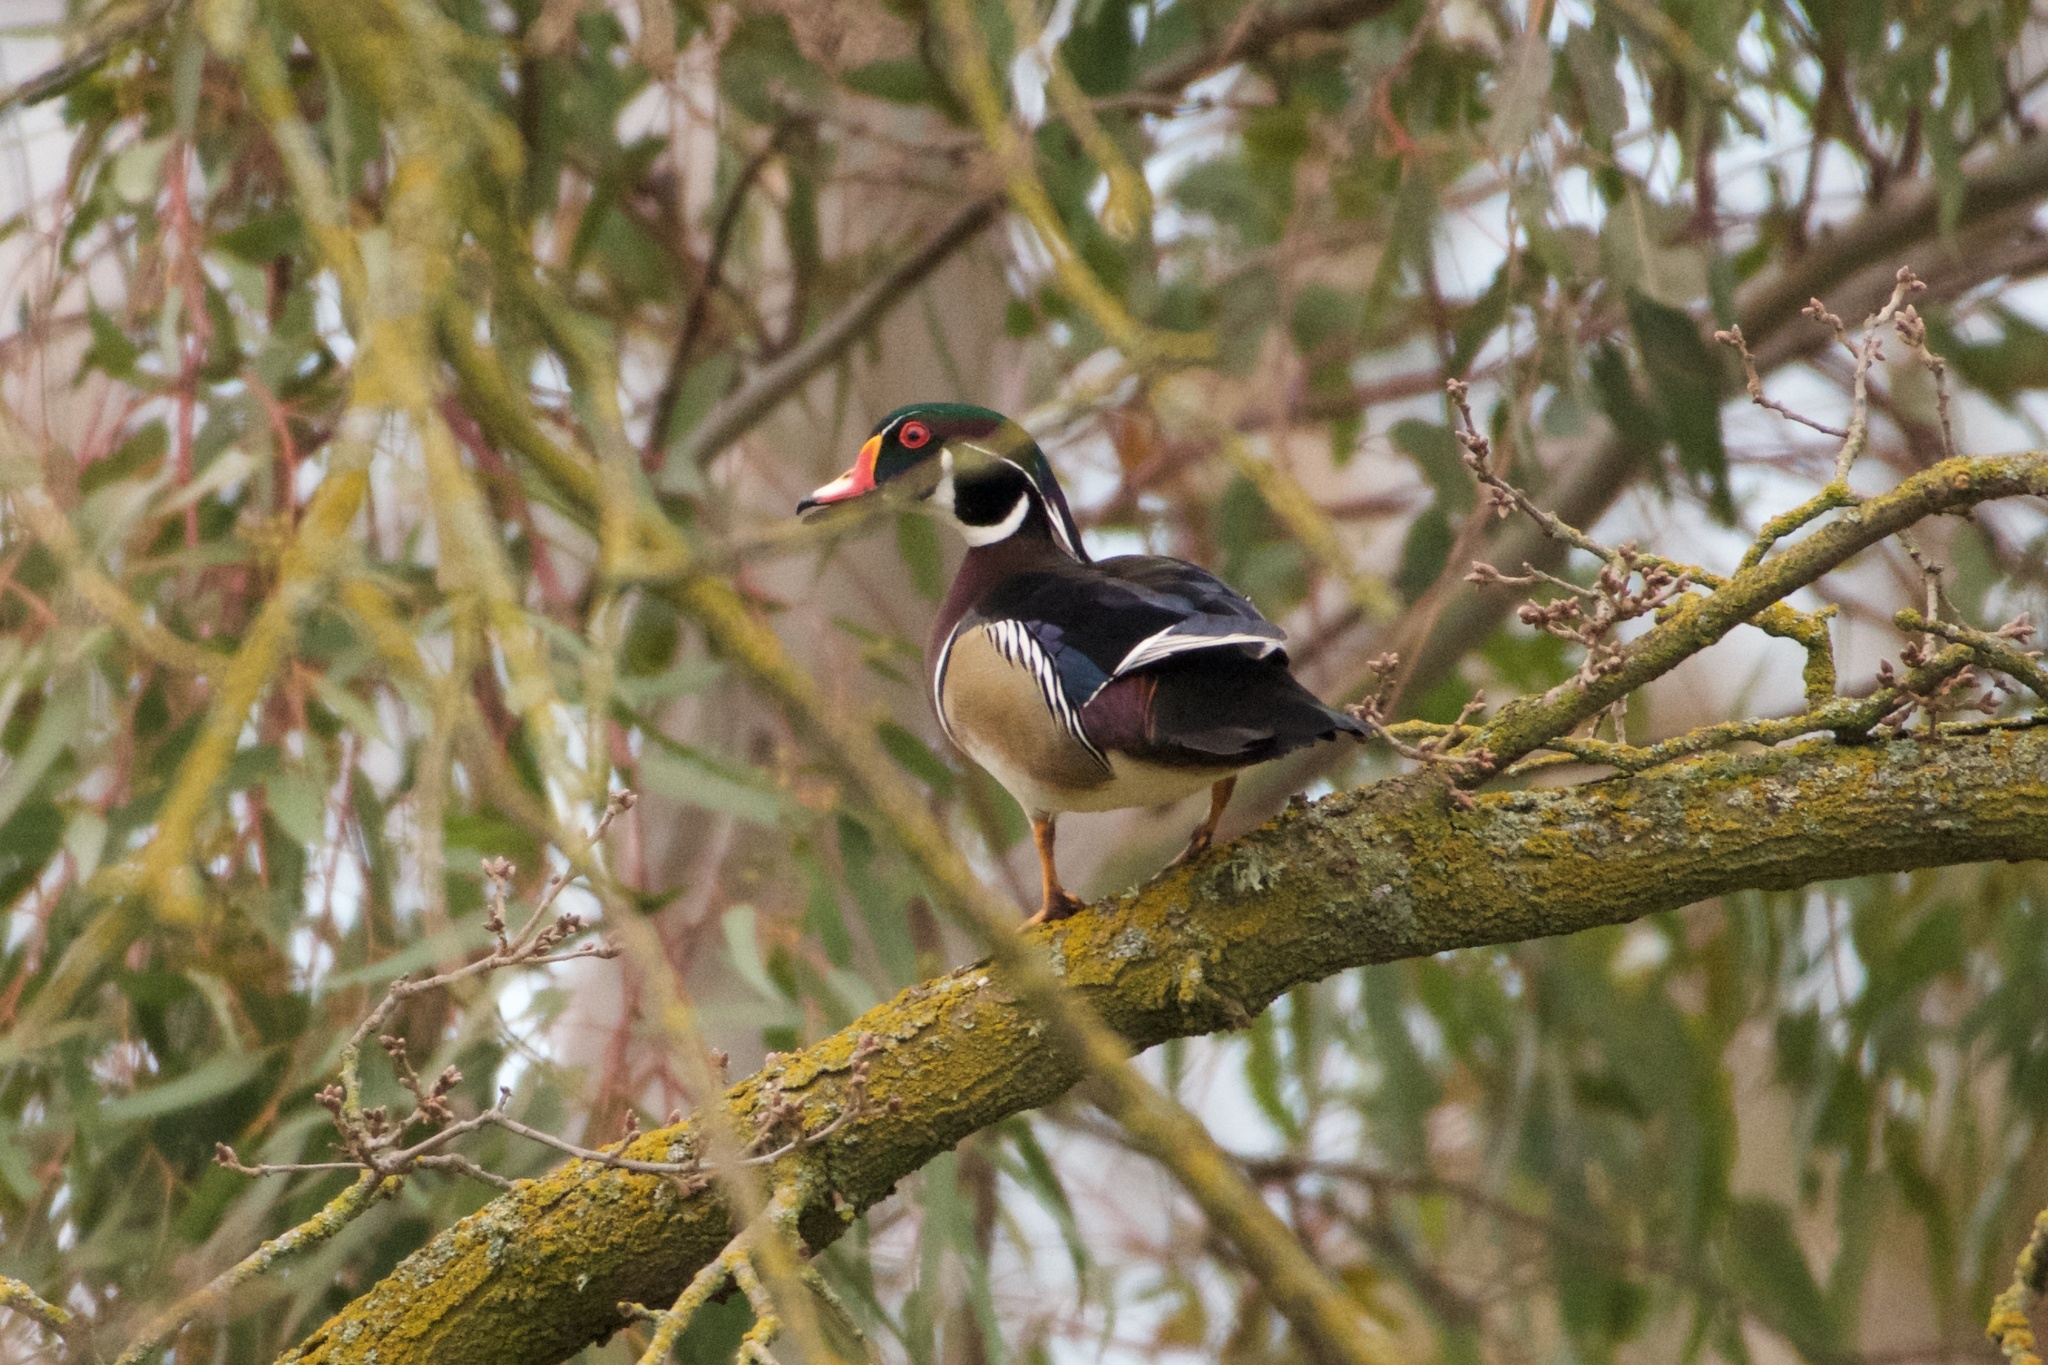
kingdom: Animalia
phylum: Chordata
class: Aves
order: Anseriformes
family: Anatidae
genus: Aix
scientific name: Aix sponsa
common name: Wood duck
